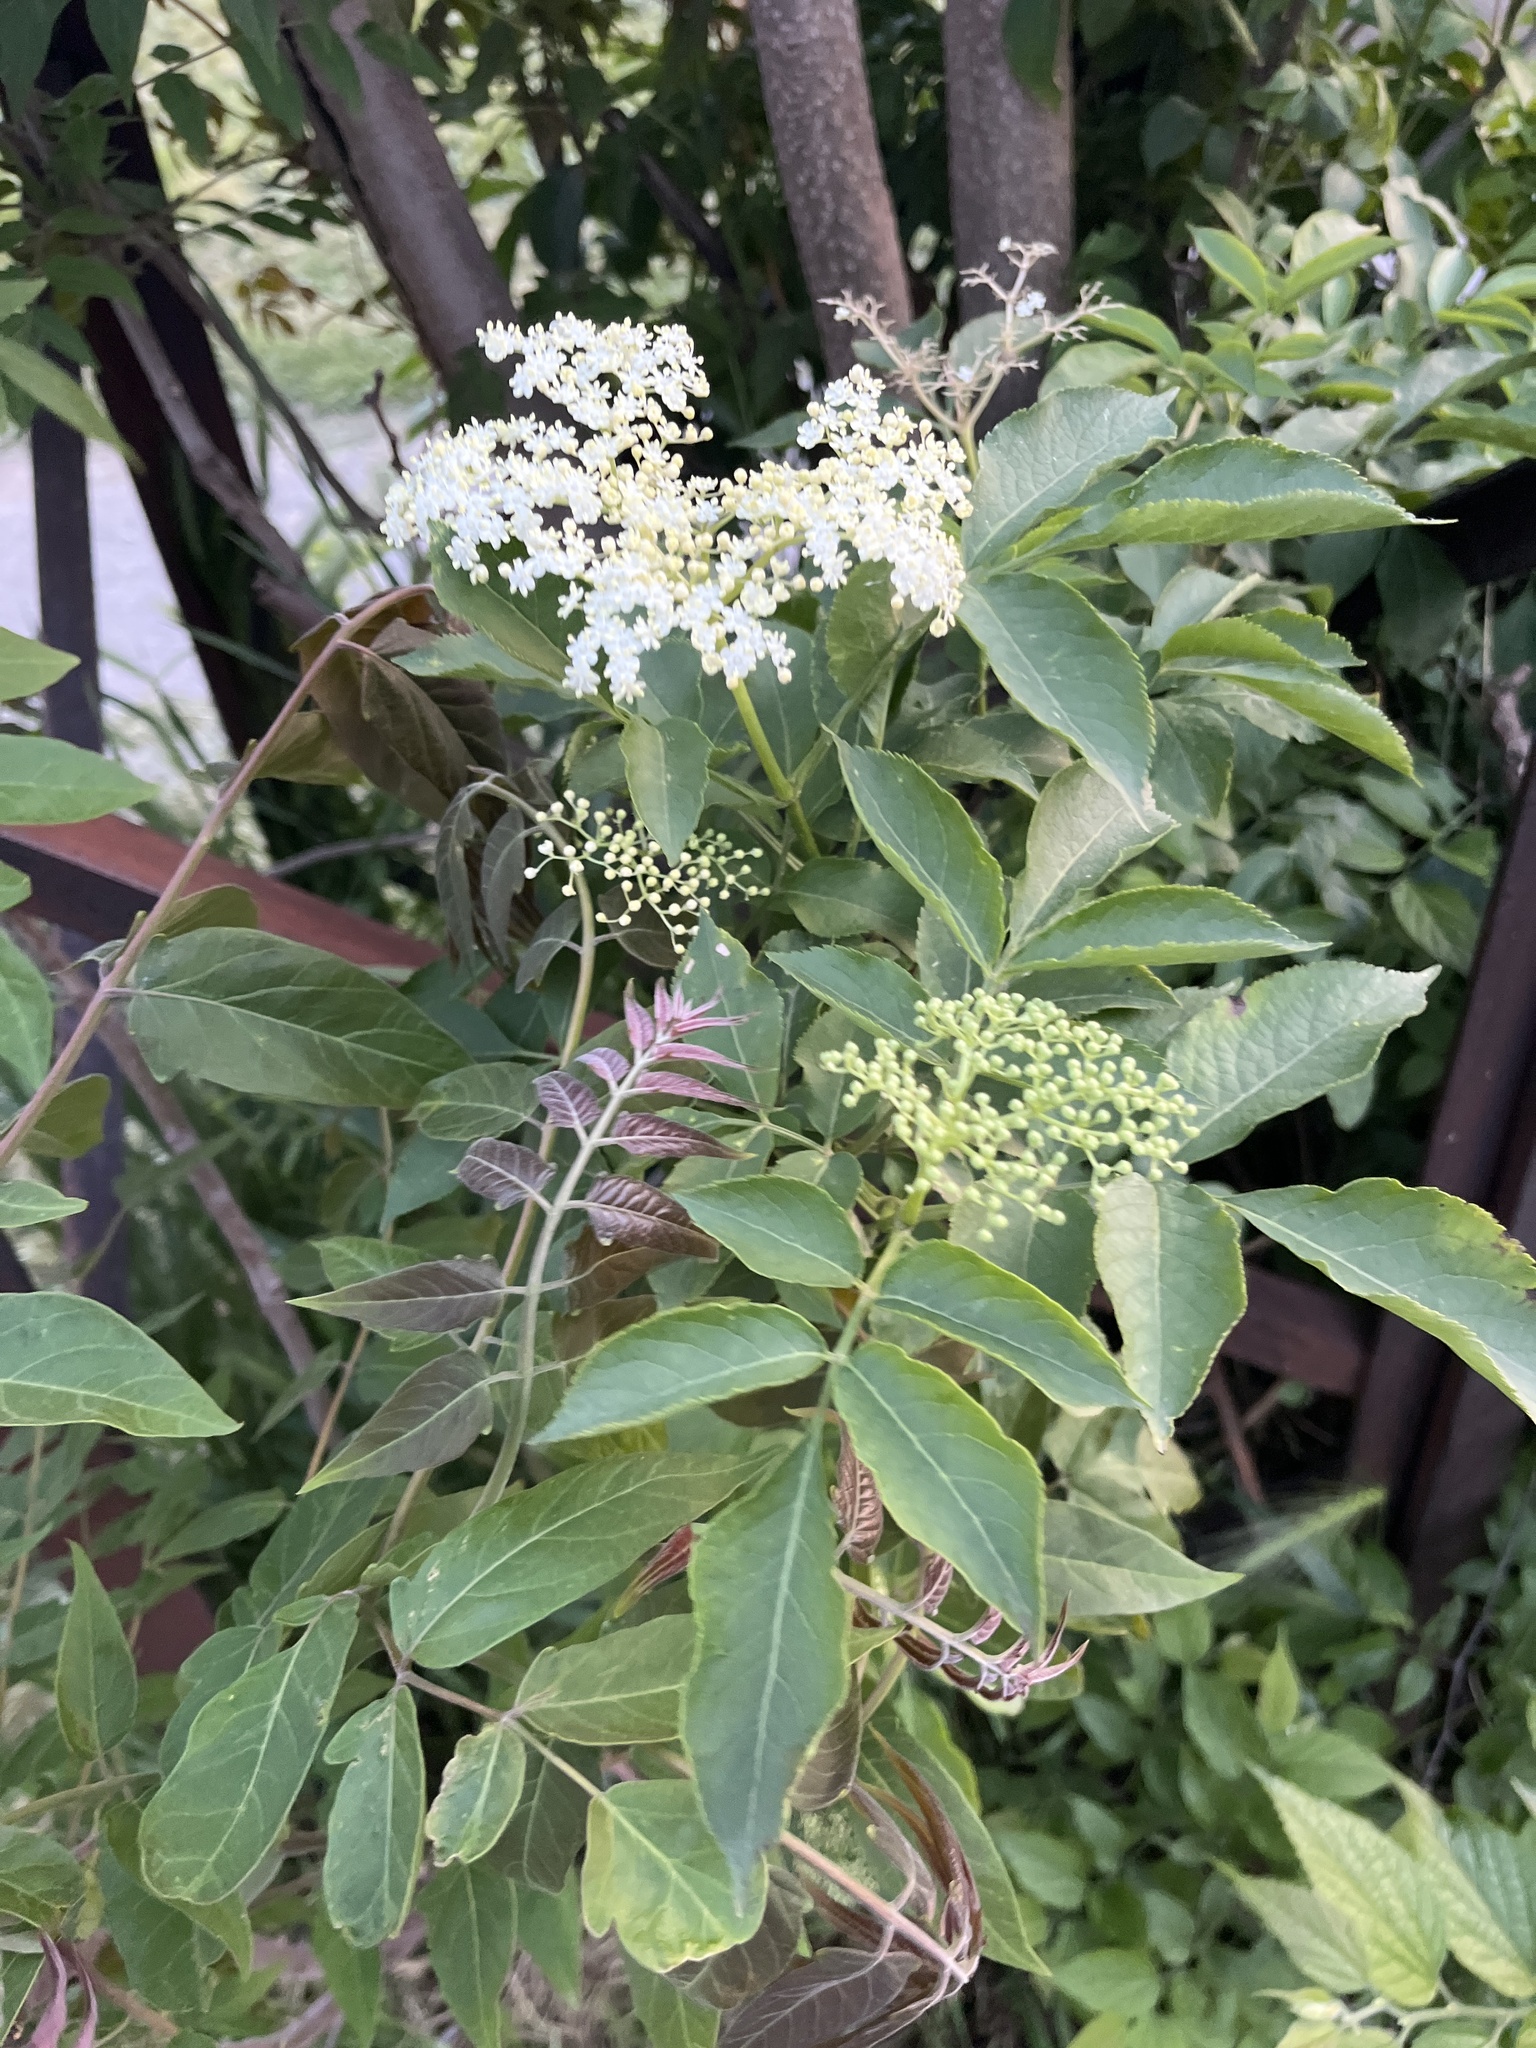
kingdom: Plantae
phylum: Tracheophyta
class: Magnoliopsida
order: Dipsacales
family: Viburnaceae
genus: Sambucus
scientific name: Sambucus nigra
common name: Elder
